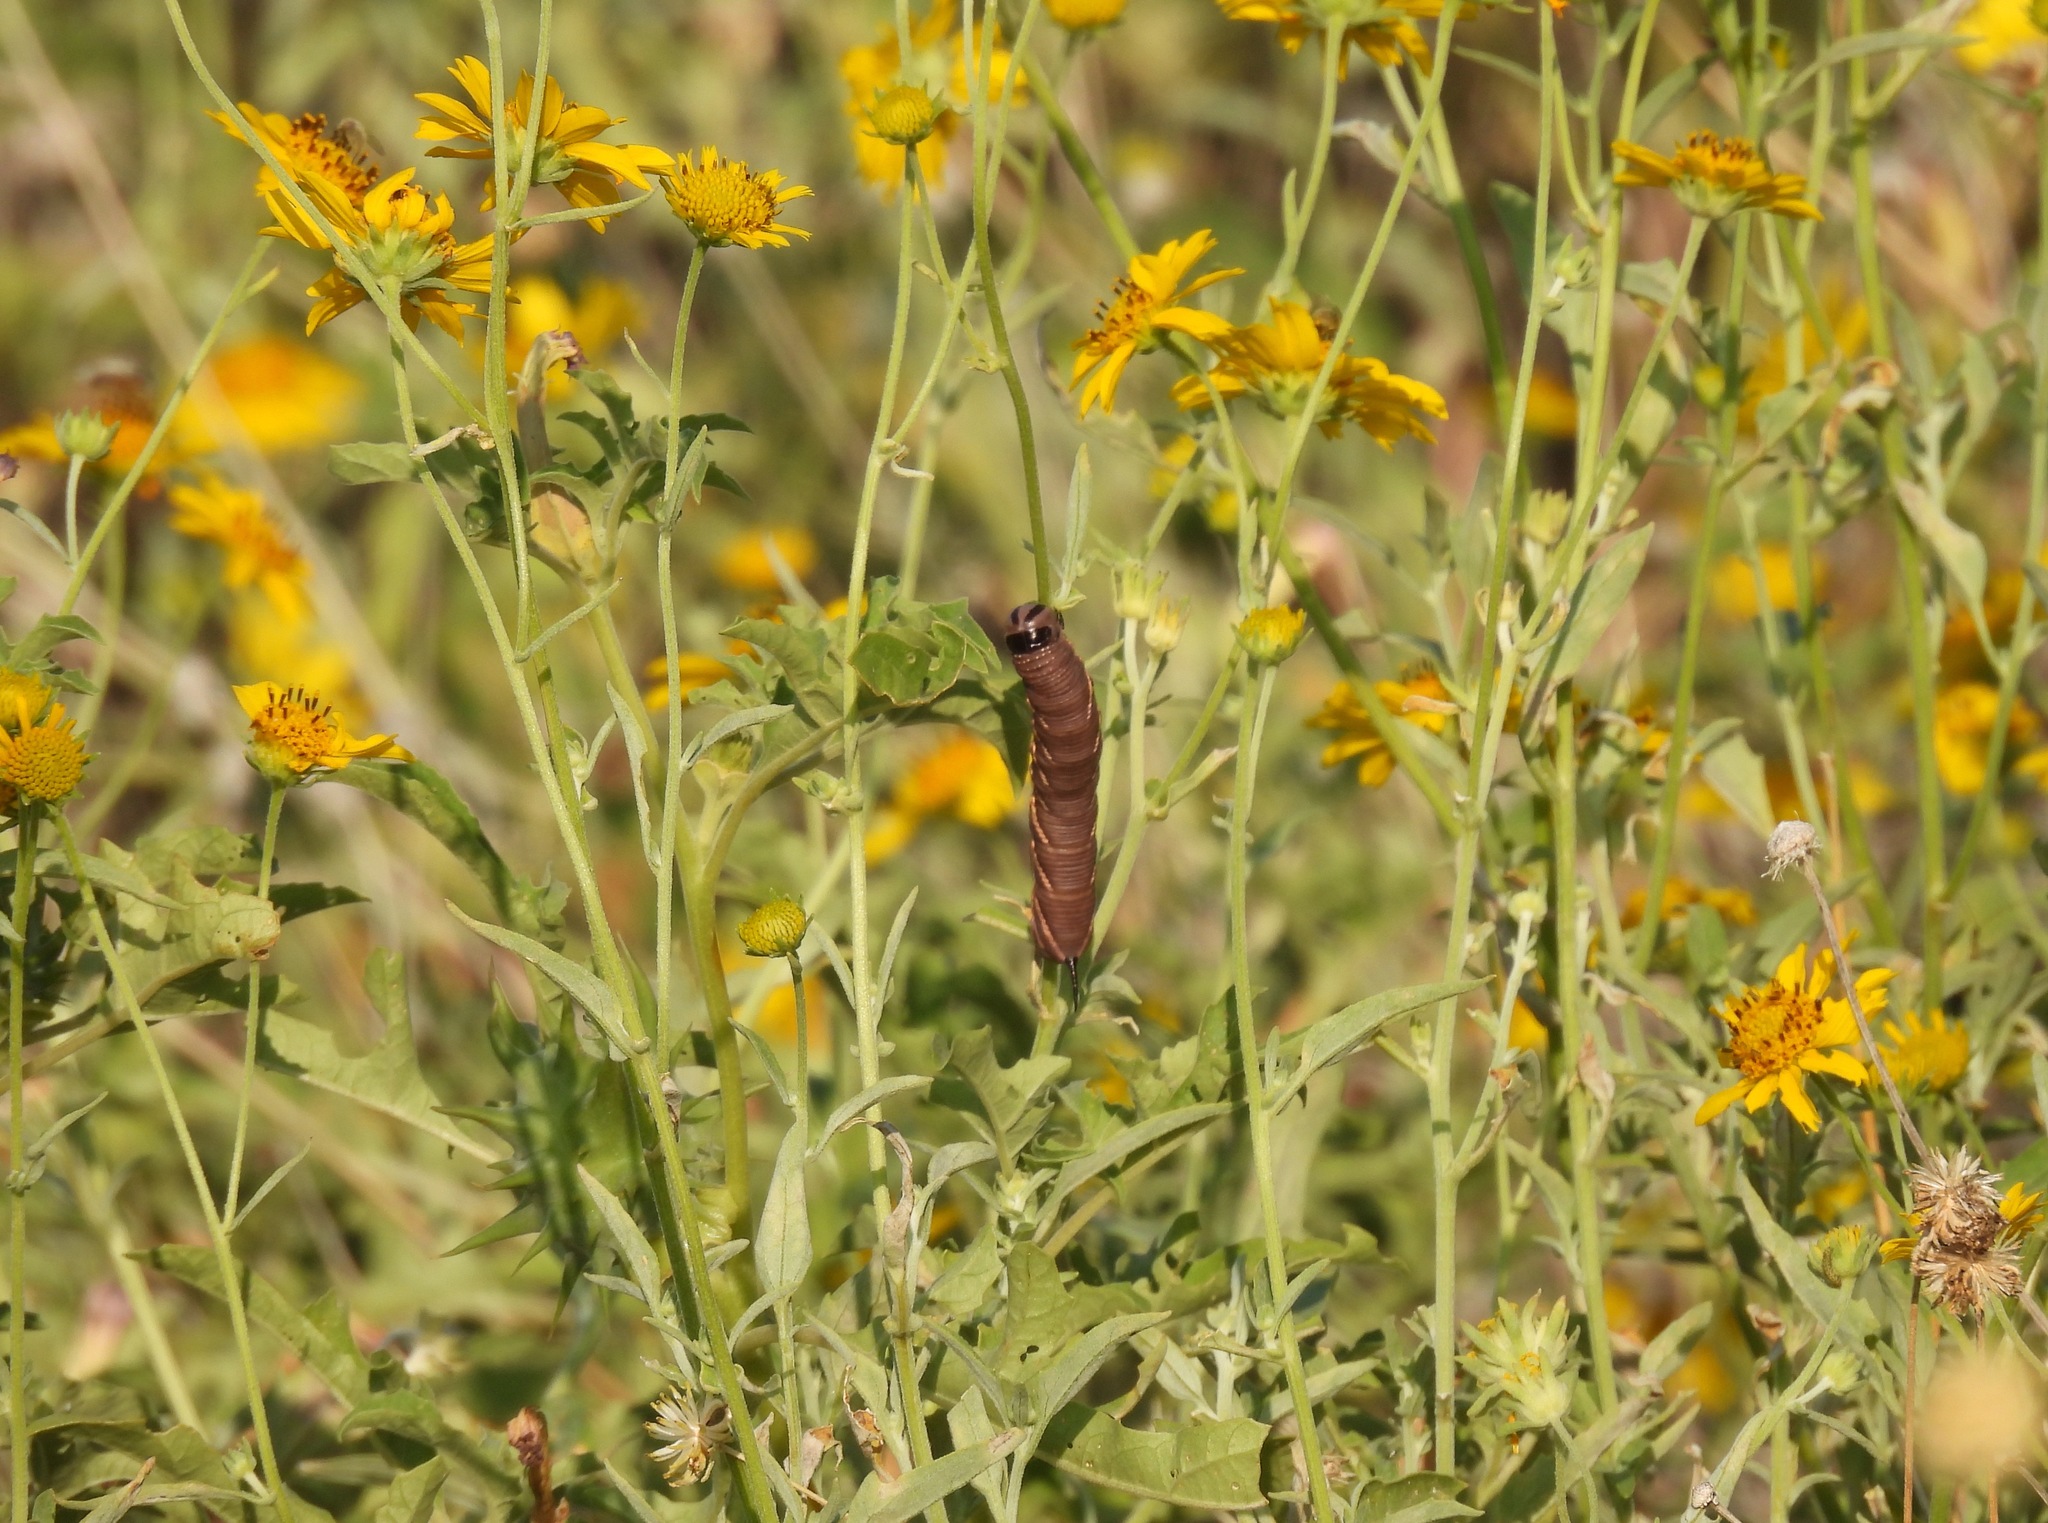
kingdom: Animalia
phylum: Arthropoda
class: Insecta
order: Lepidoptera
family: Sphingidae
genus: Manduca
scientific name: Manduca quinquemaculatus
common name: Five-spotted hawk-moth
